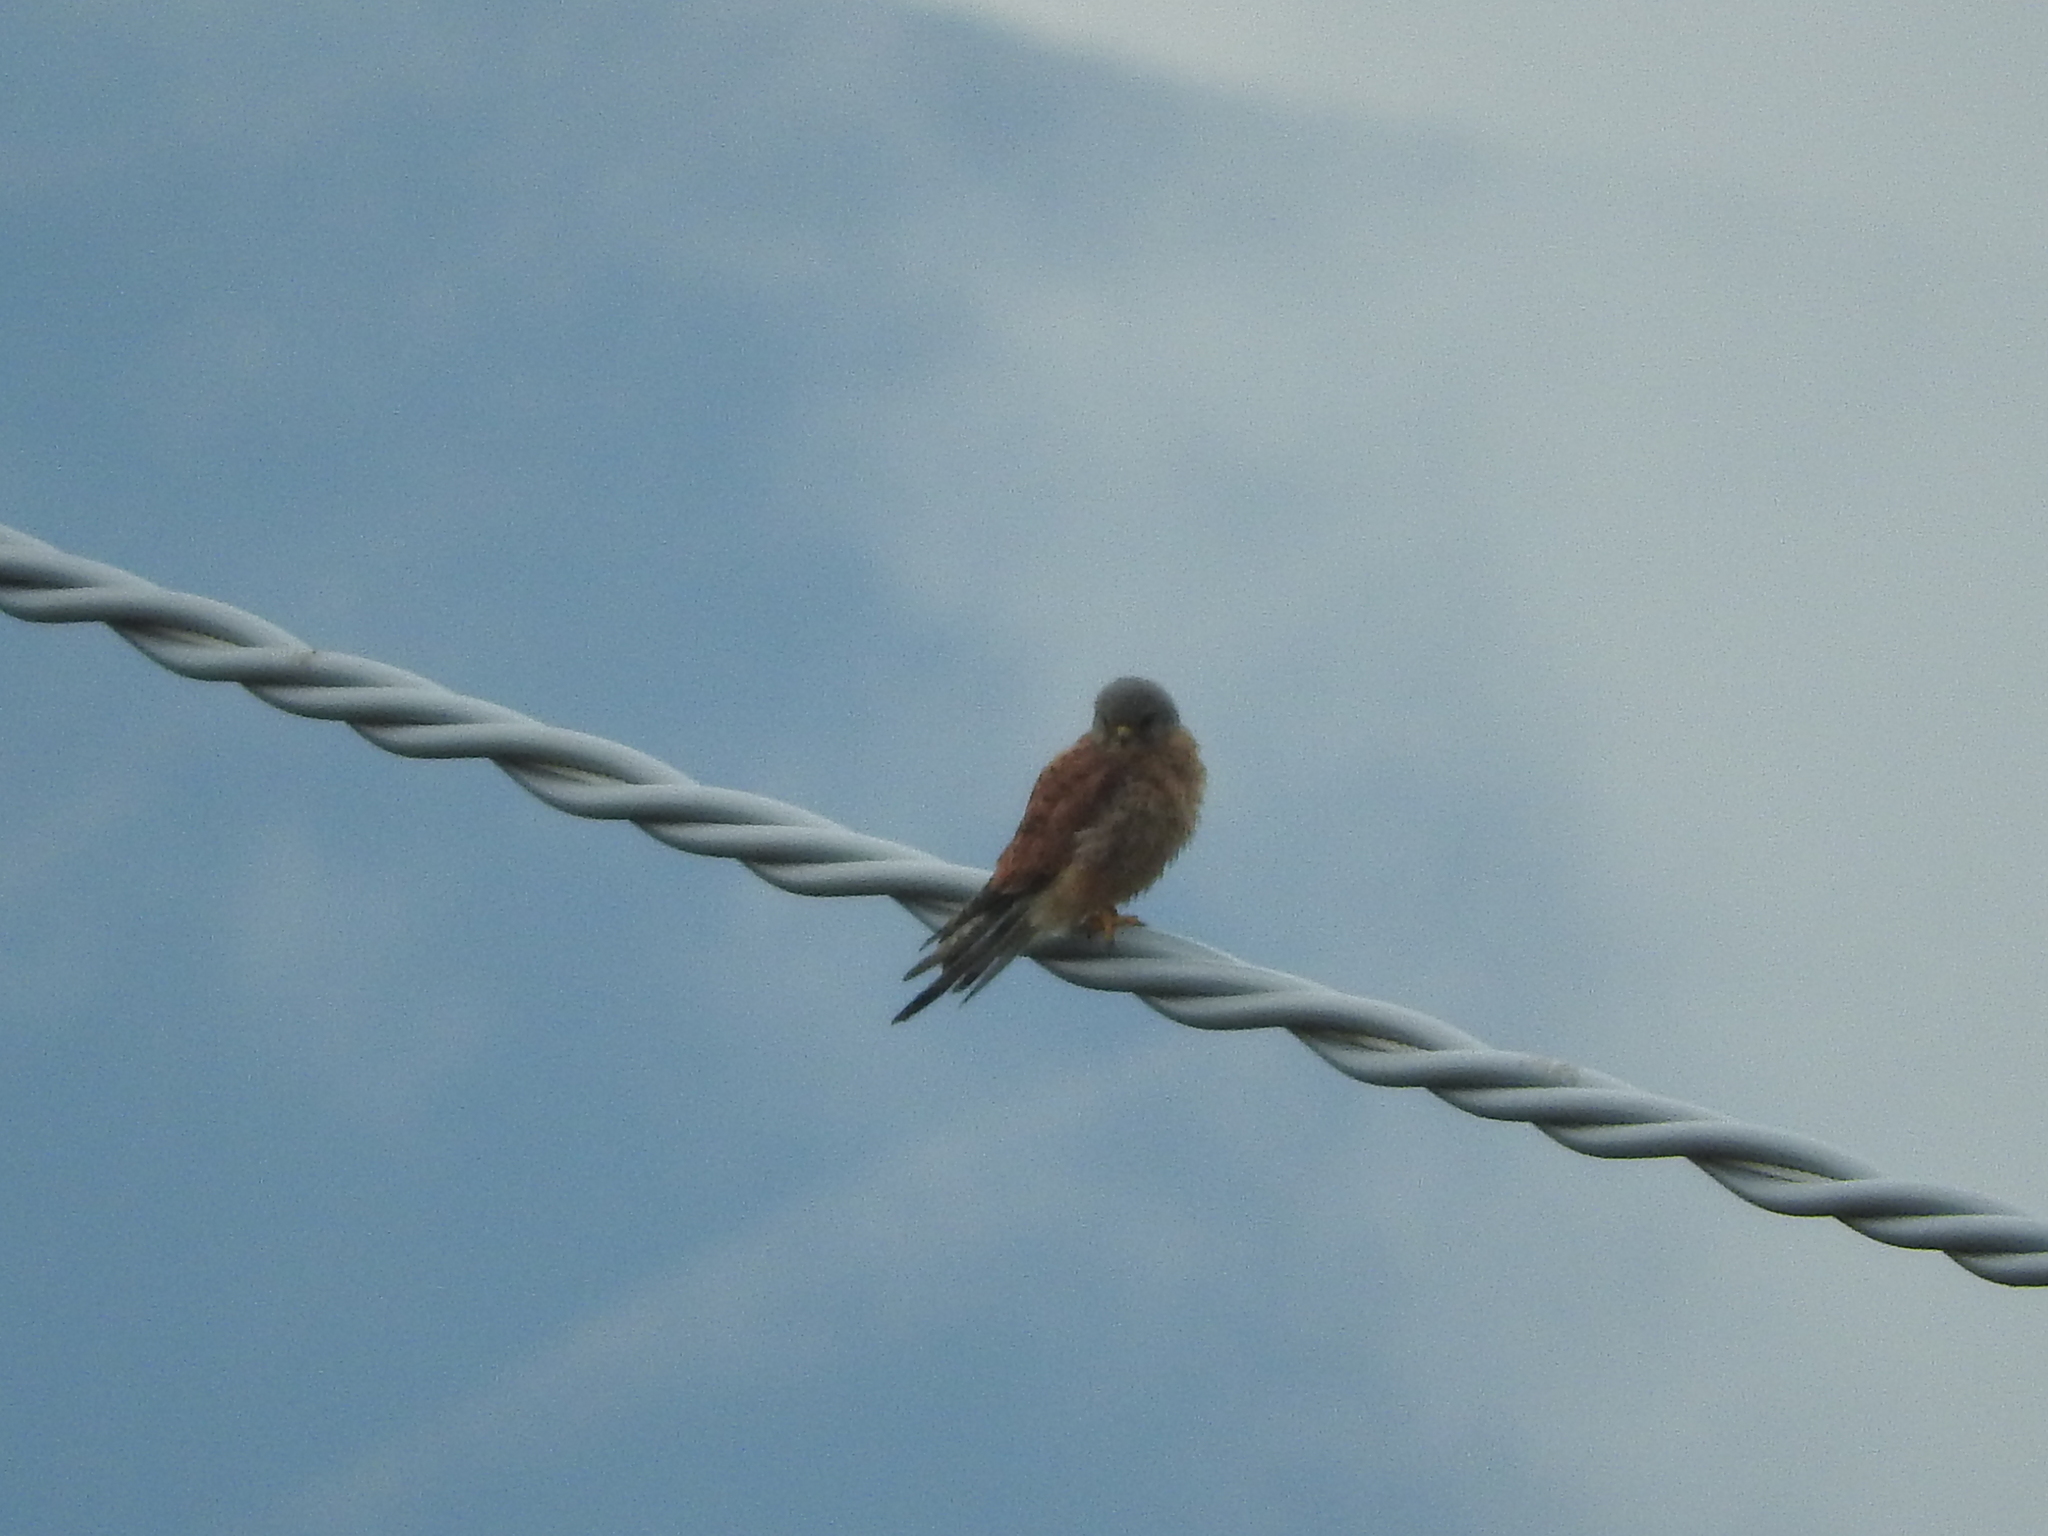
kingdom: Animalia
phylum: Chordata
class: Aves
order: Falconiformes
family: Falconidae
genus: Falco
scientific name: Falco tinnunculus
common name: Common kestrel
